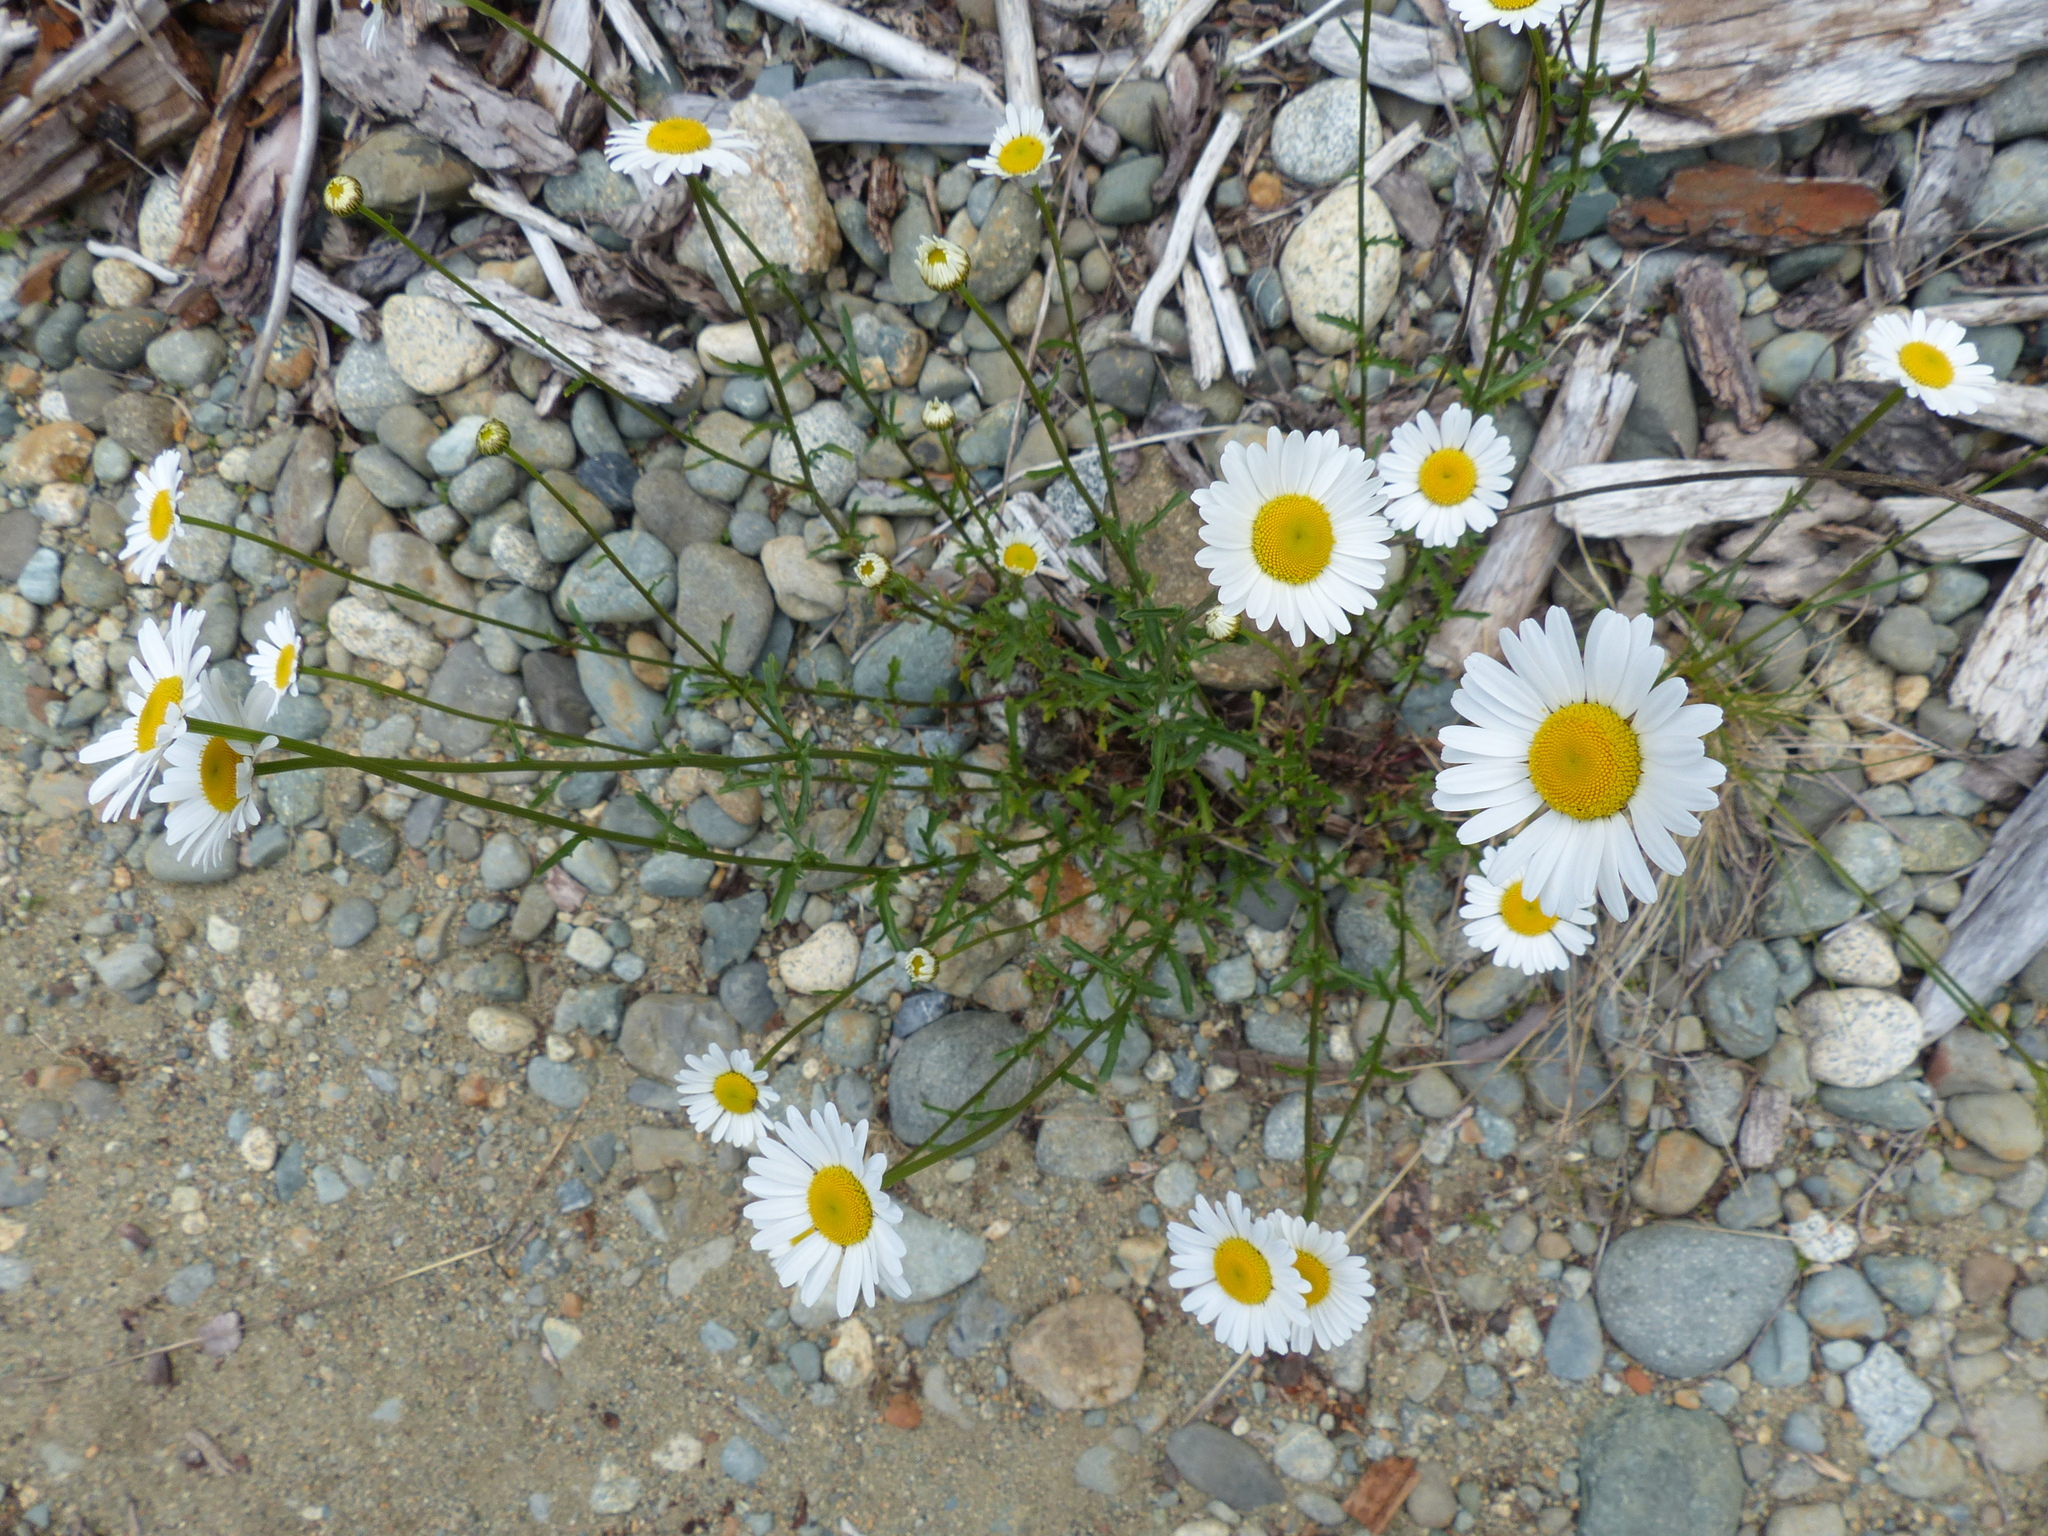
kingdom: Plantae
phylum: Tracheophyta
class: Magnoliopsida
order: Asterales
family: Asteraceae
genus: Leucanthemum
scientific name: Leucanthemum vulgare
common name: Oxeye daisy
